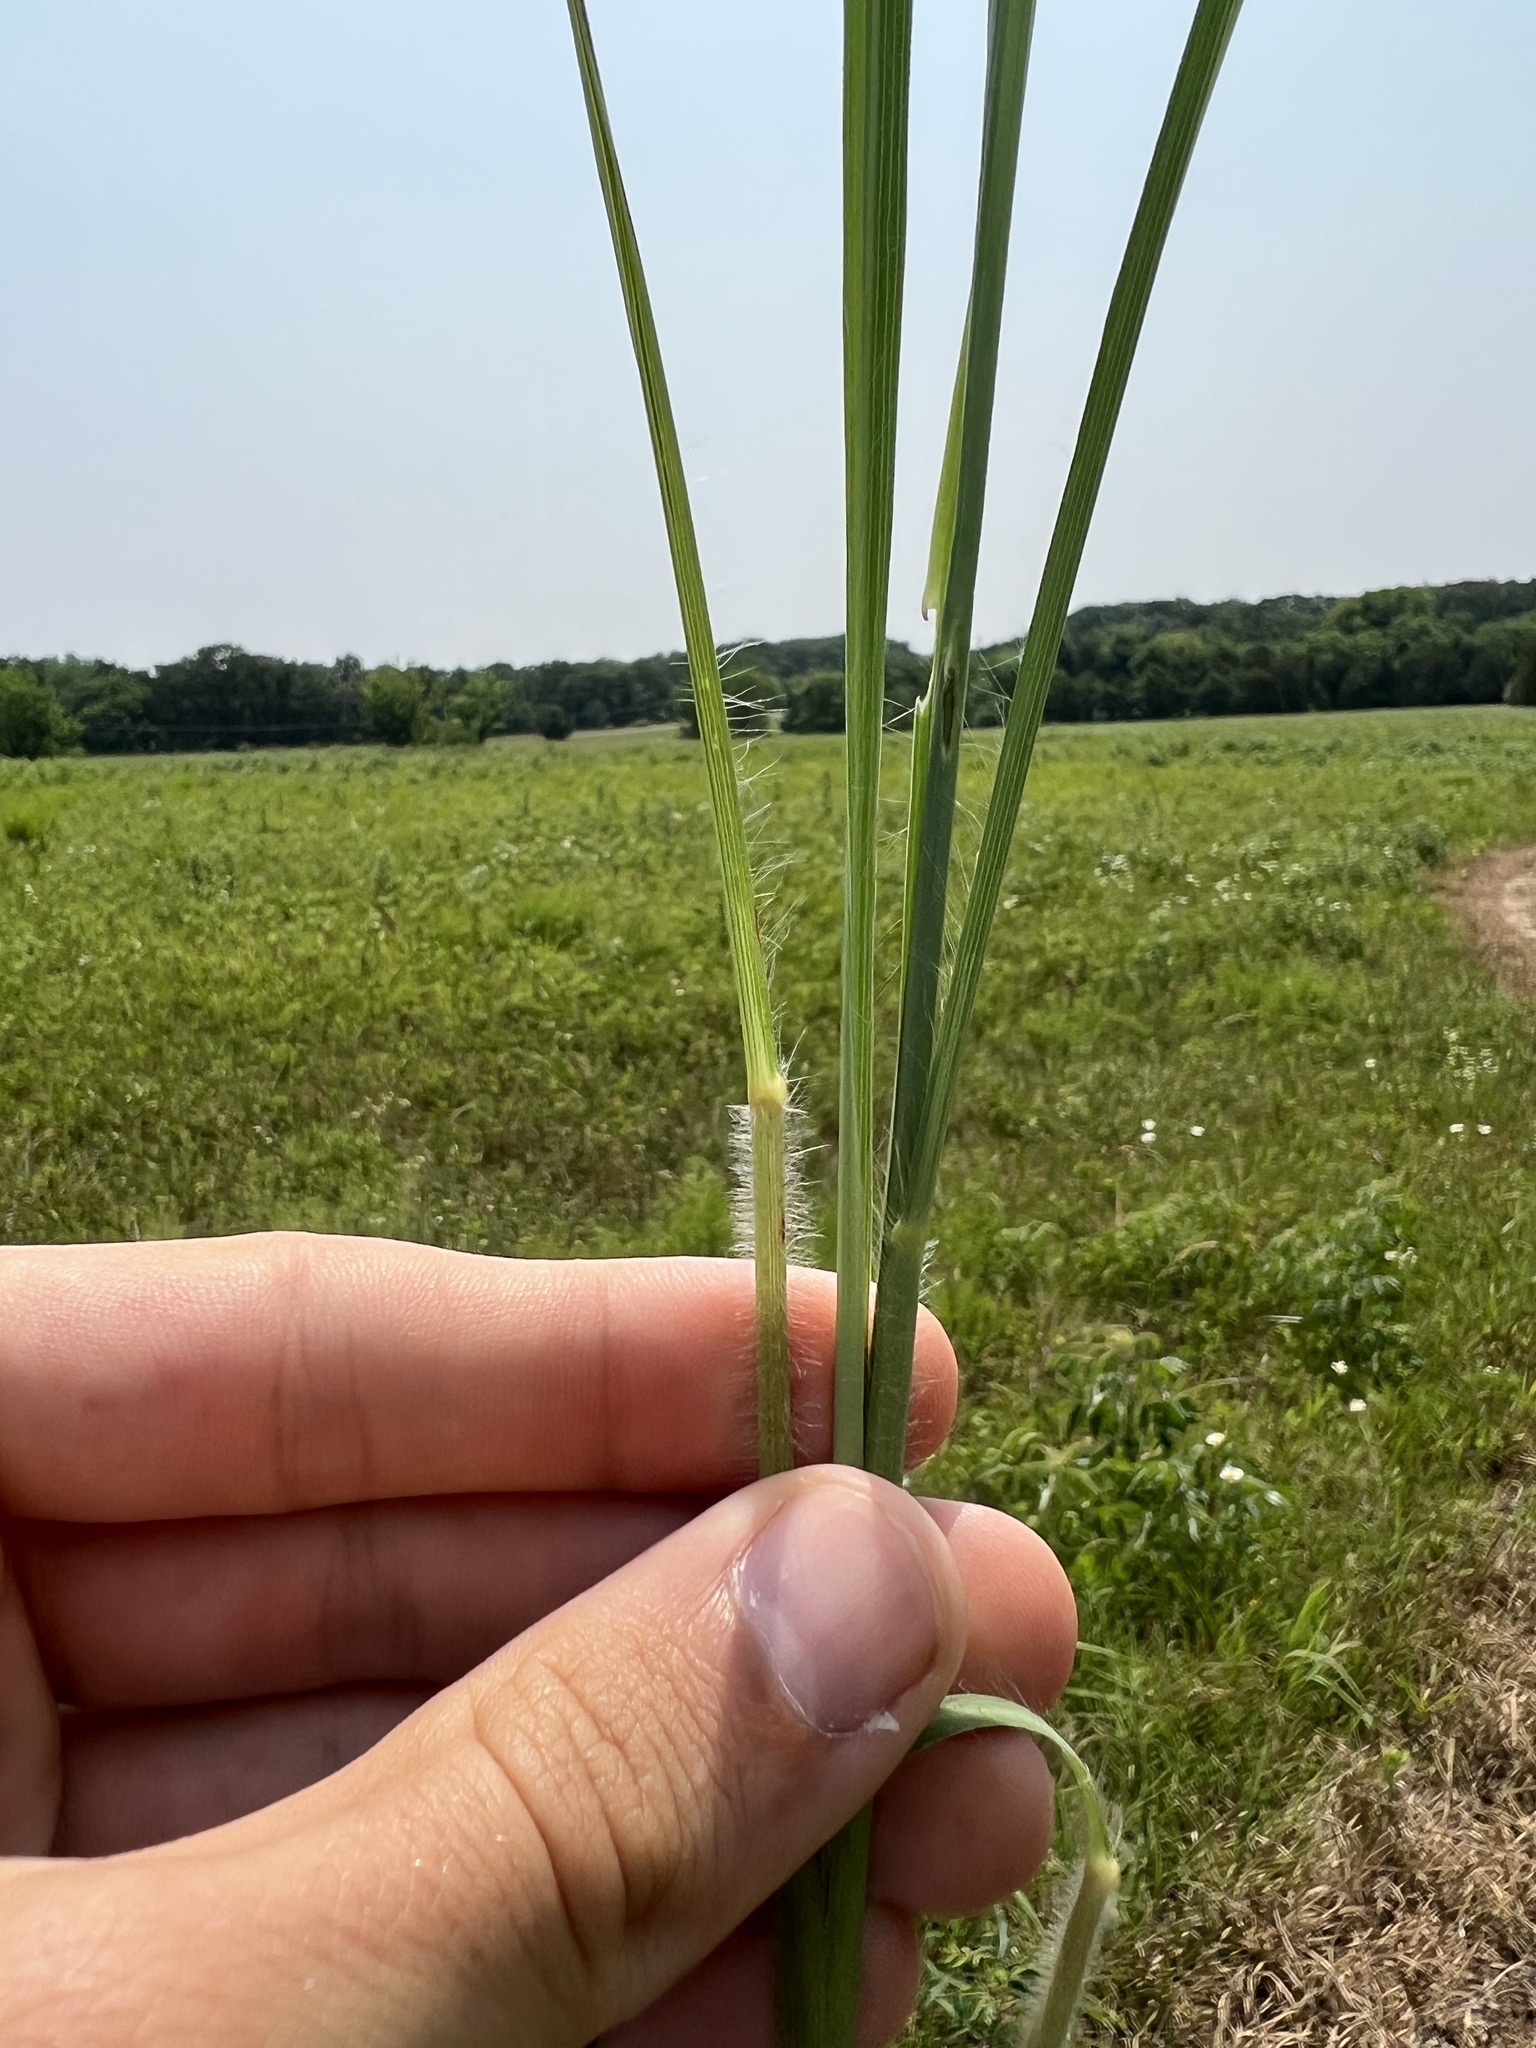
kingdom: Plantae
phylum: Tracheophyta
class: Liliopsida
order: Poales
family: Poaceae
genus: Andropogon
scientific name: Andropogon gerardi
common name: Big bluestem
